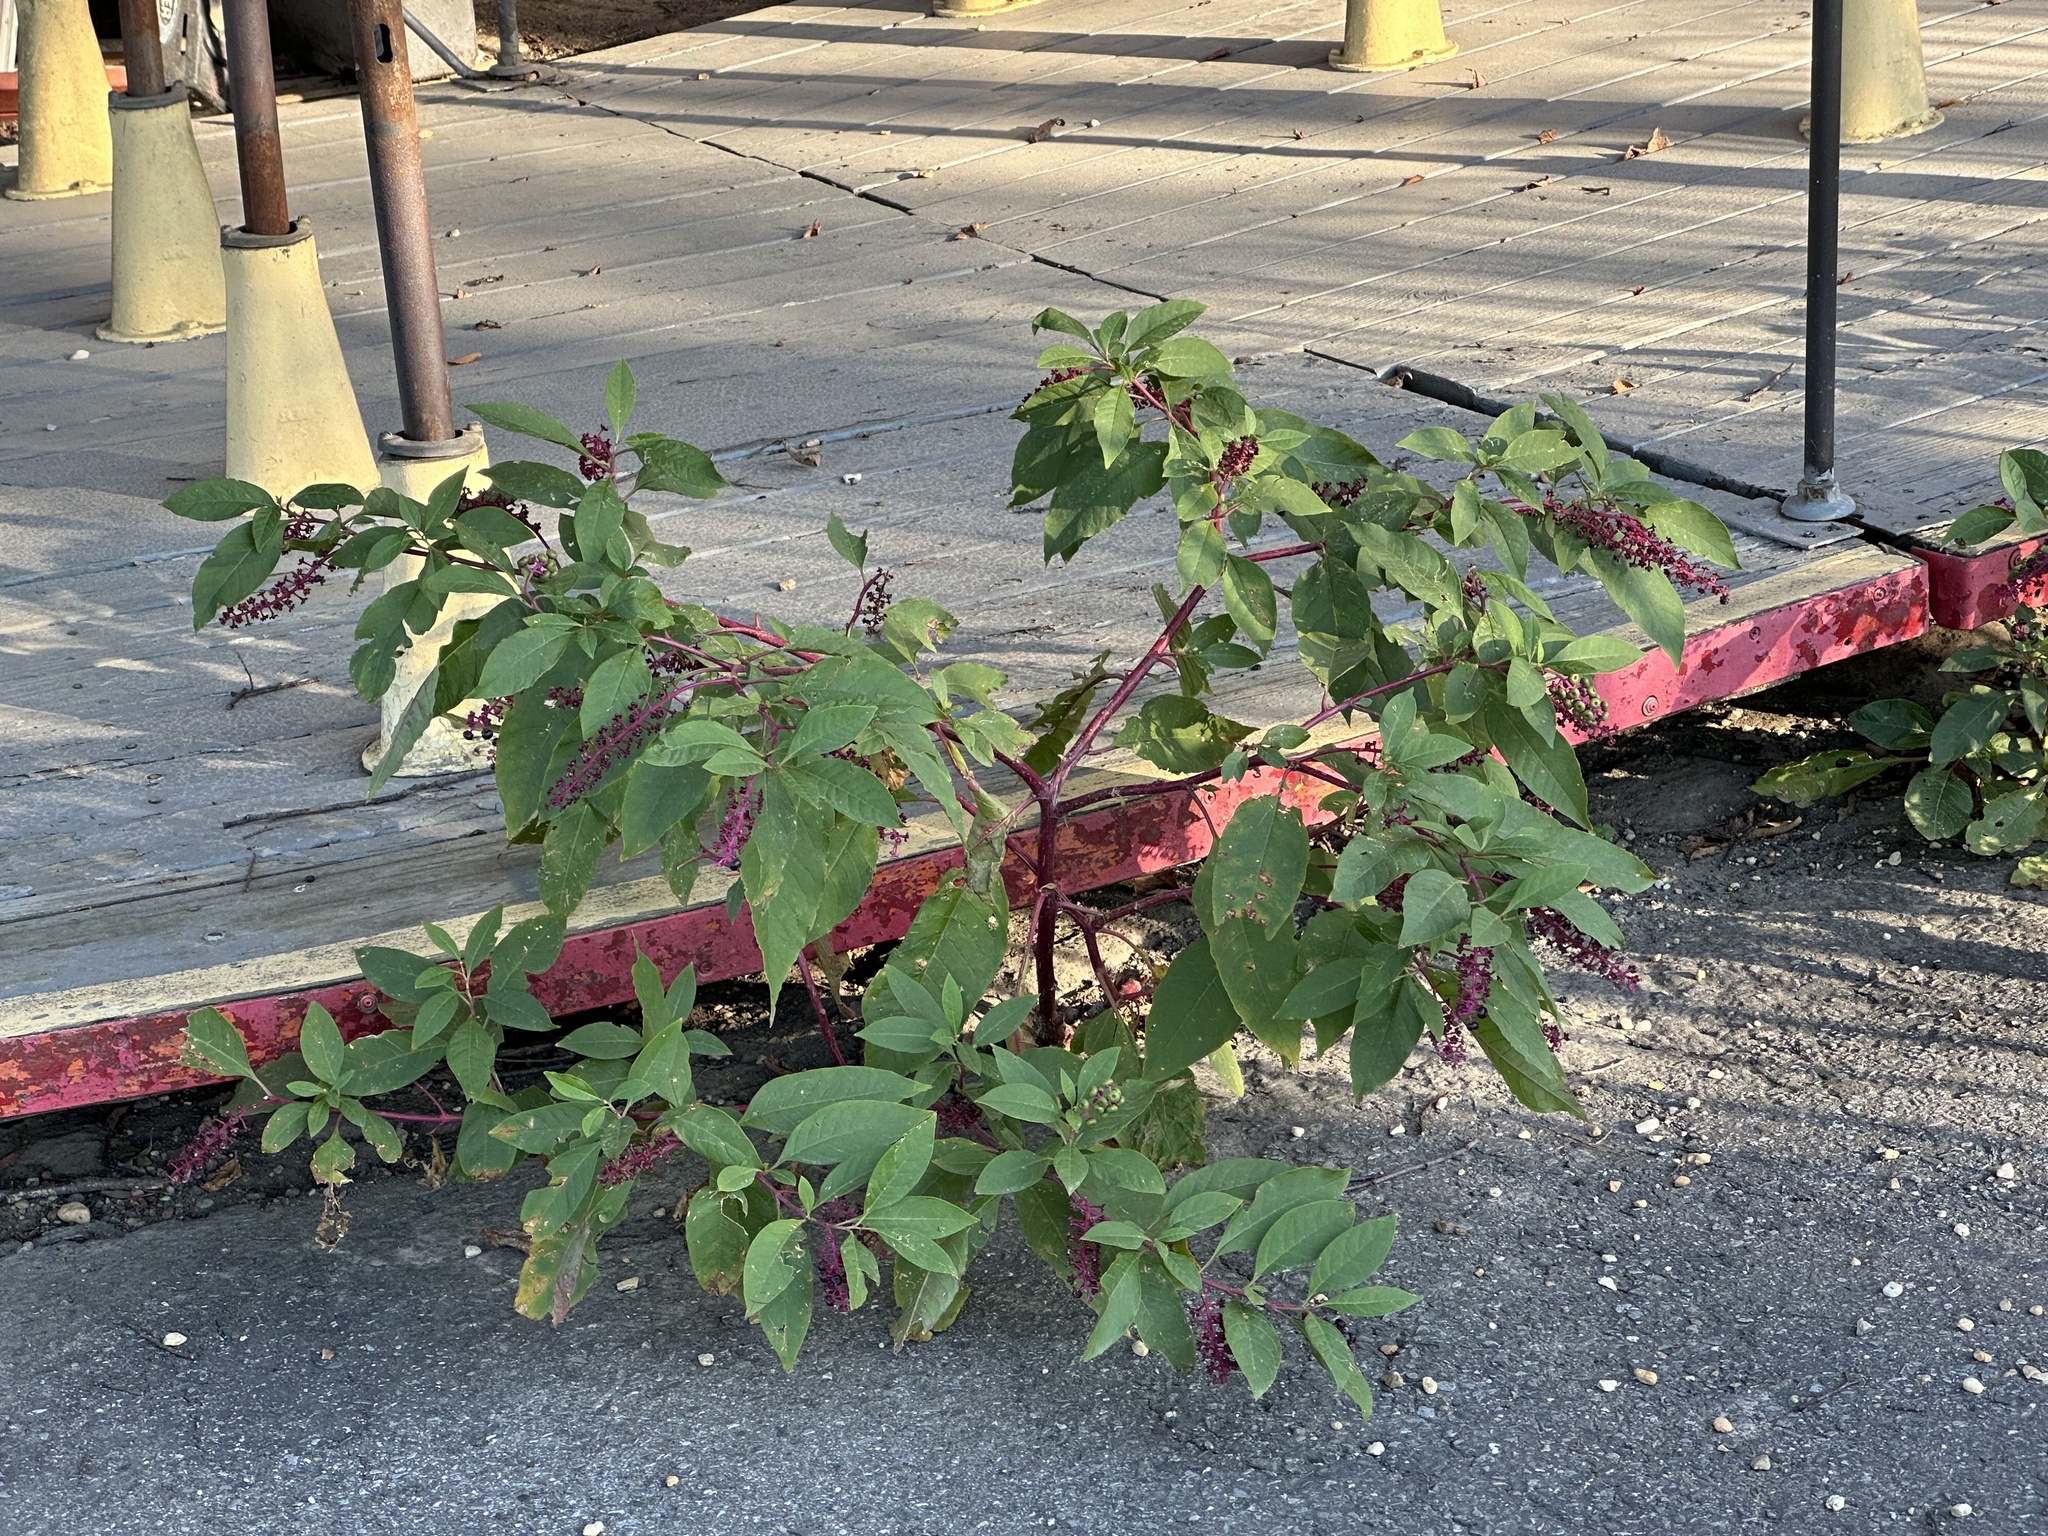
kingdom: Plantae
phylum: Tracheophyta
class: Magnoliopsida
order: Caryophyllales
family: Phytolaccaceae
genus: Phytolacca
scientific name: Phytolacca americana
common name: American pokeweed
